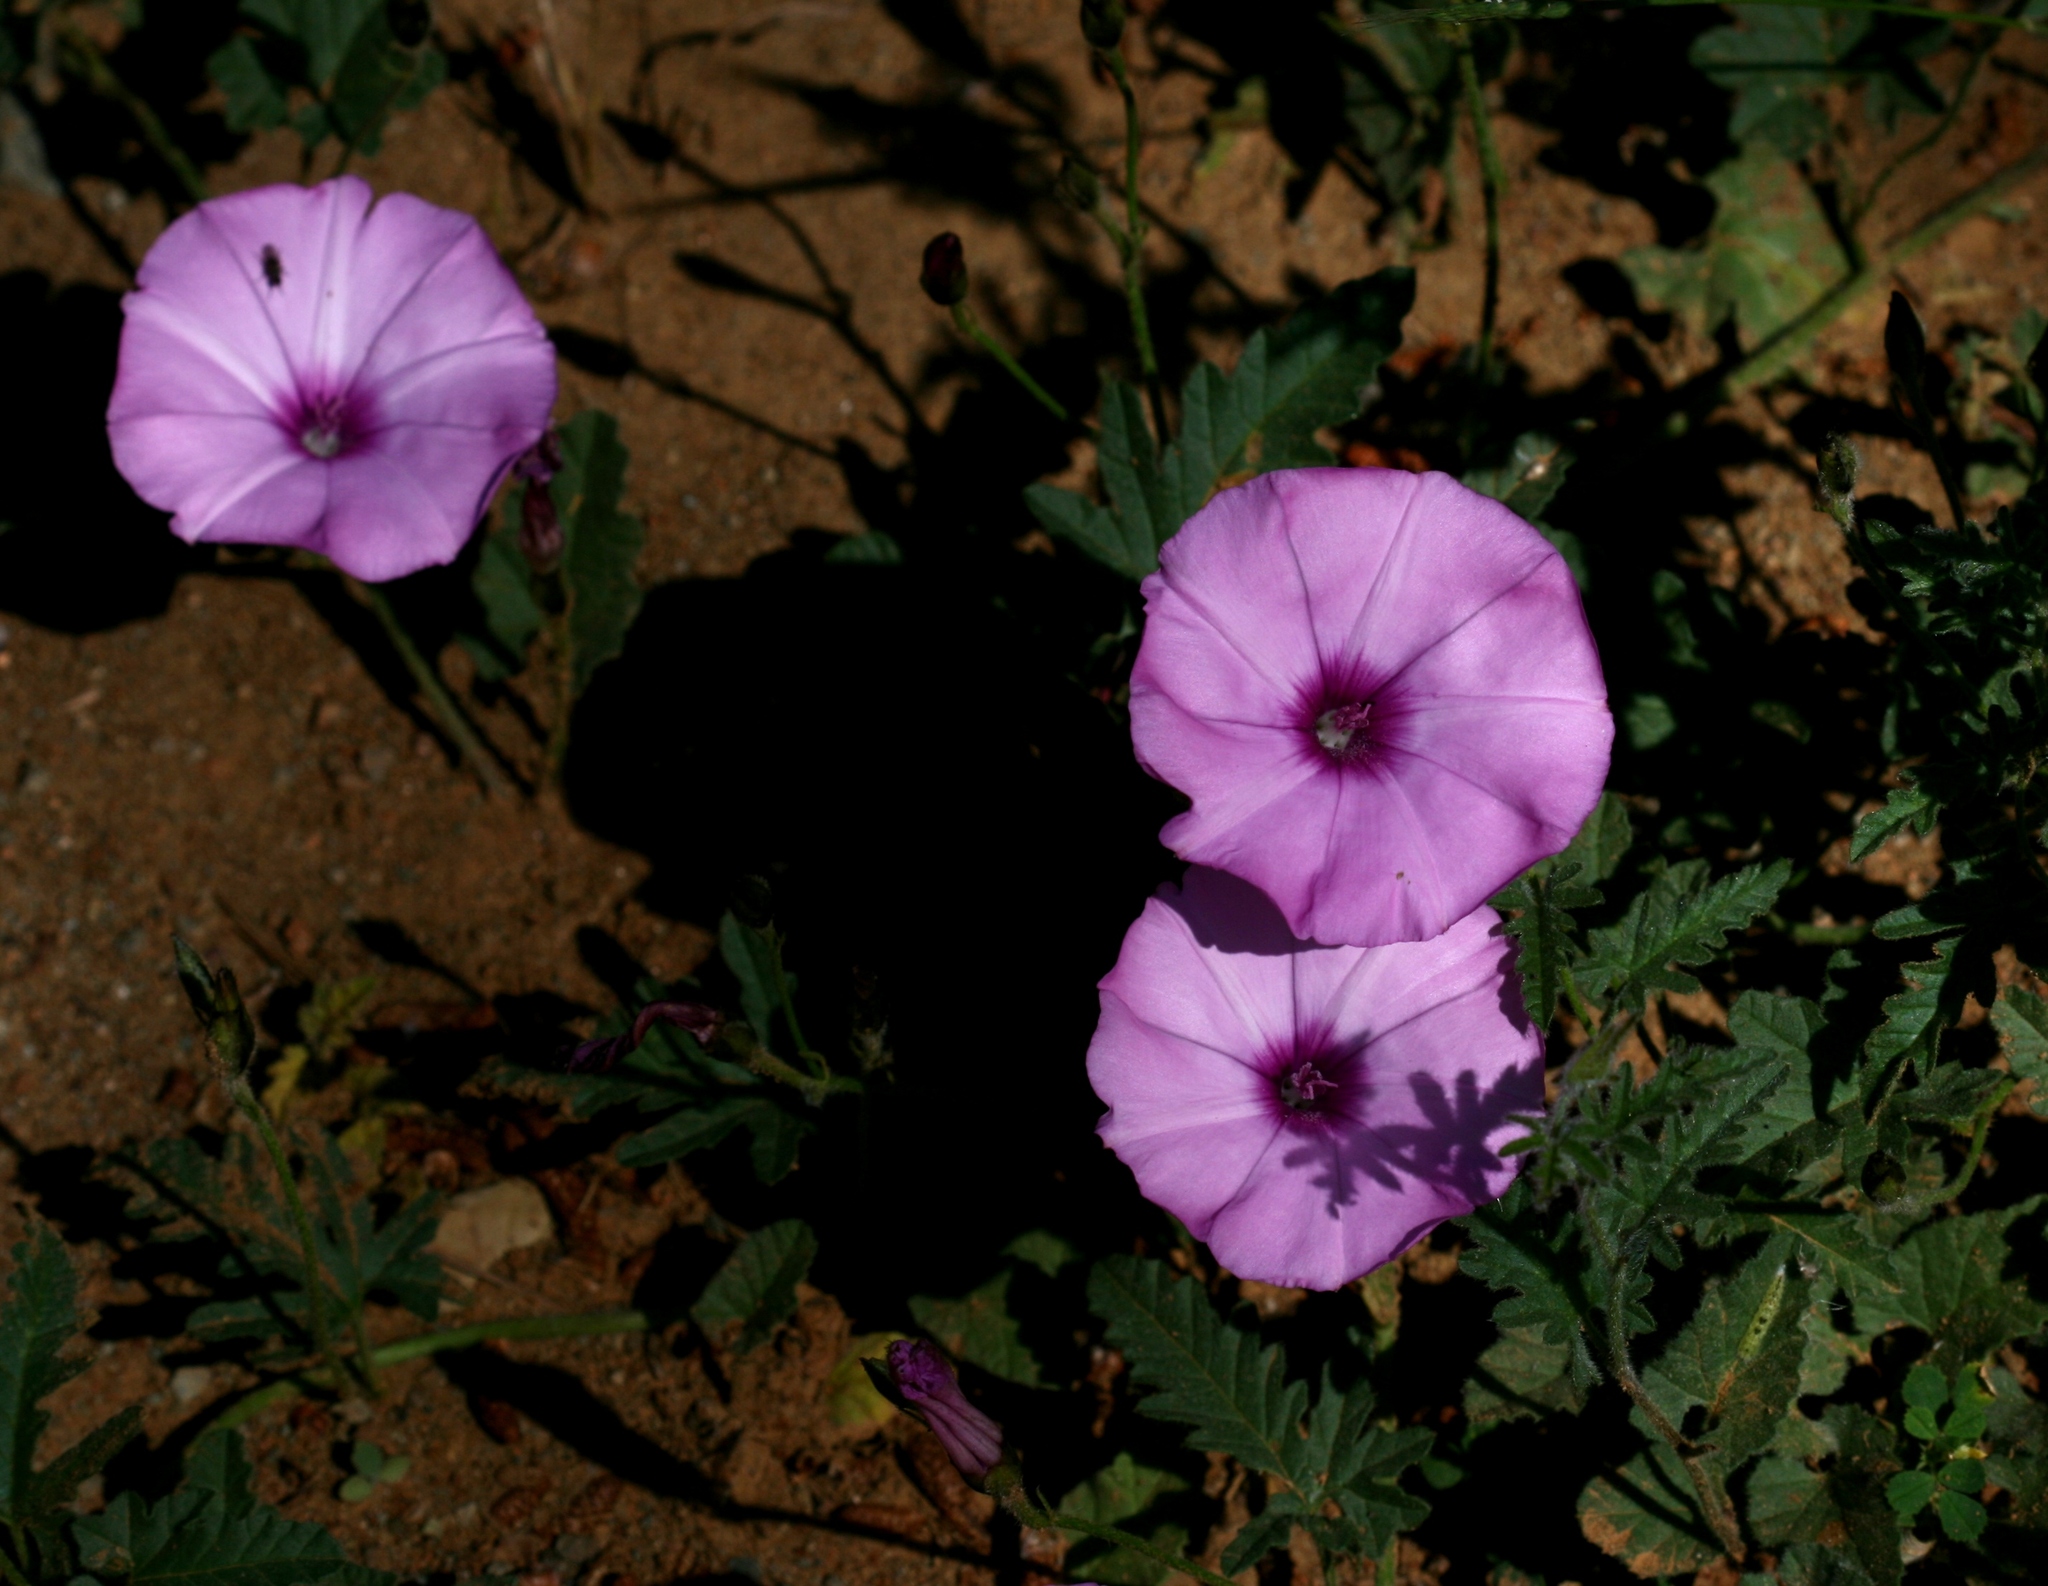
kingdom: Plantae
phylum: Tracheophyta
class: Magnoliopsida
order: Solanales
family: Convolvulaceae
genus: Convolvulus
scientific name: Convolvulus althaeoides
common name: Mallow bindweed
